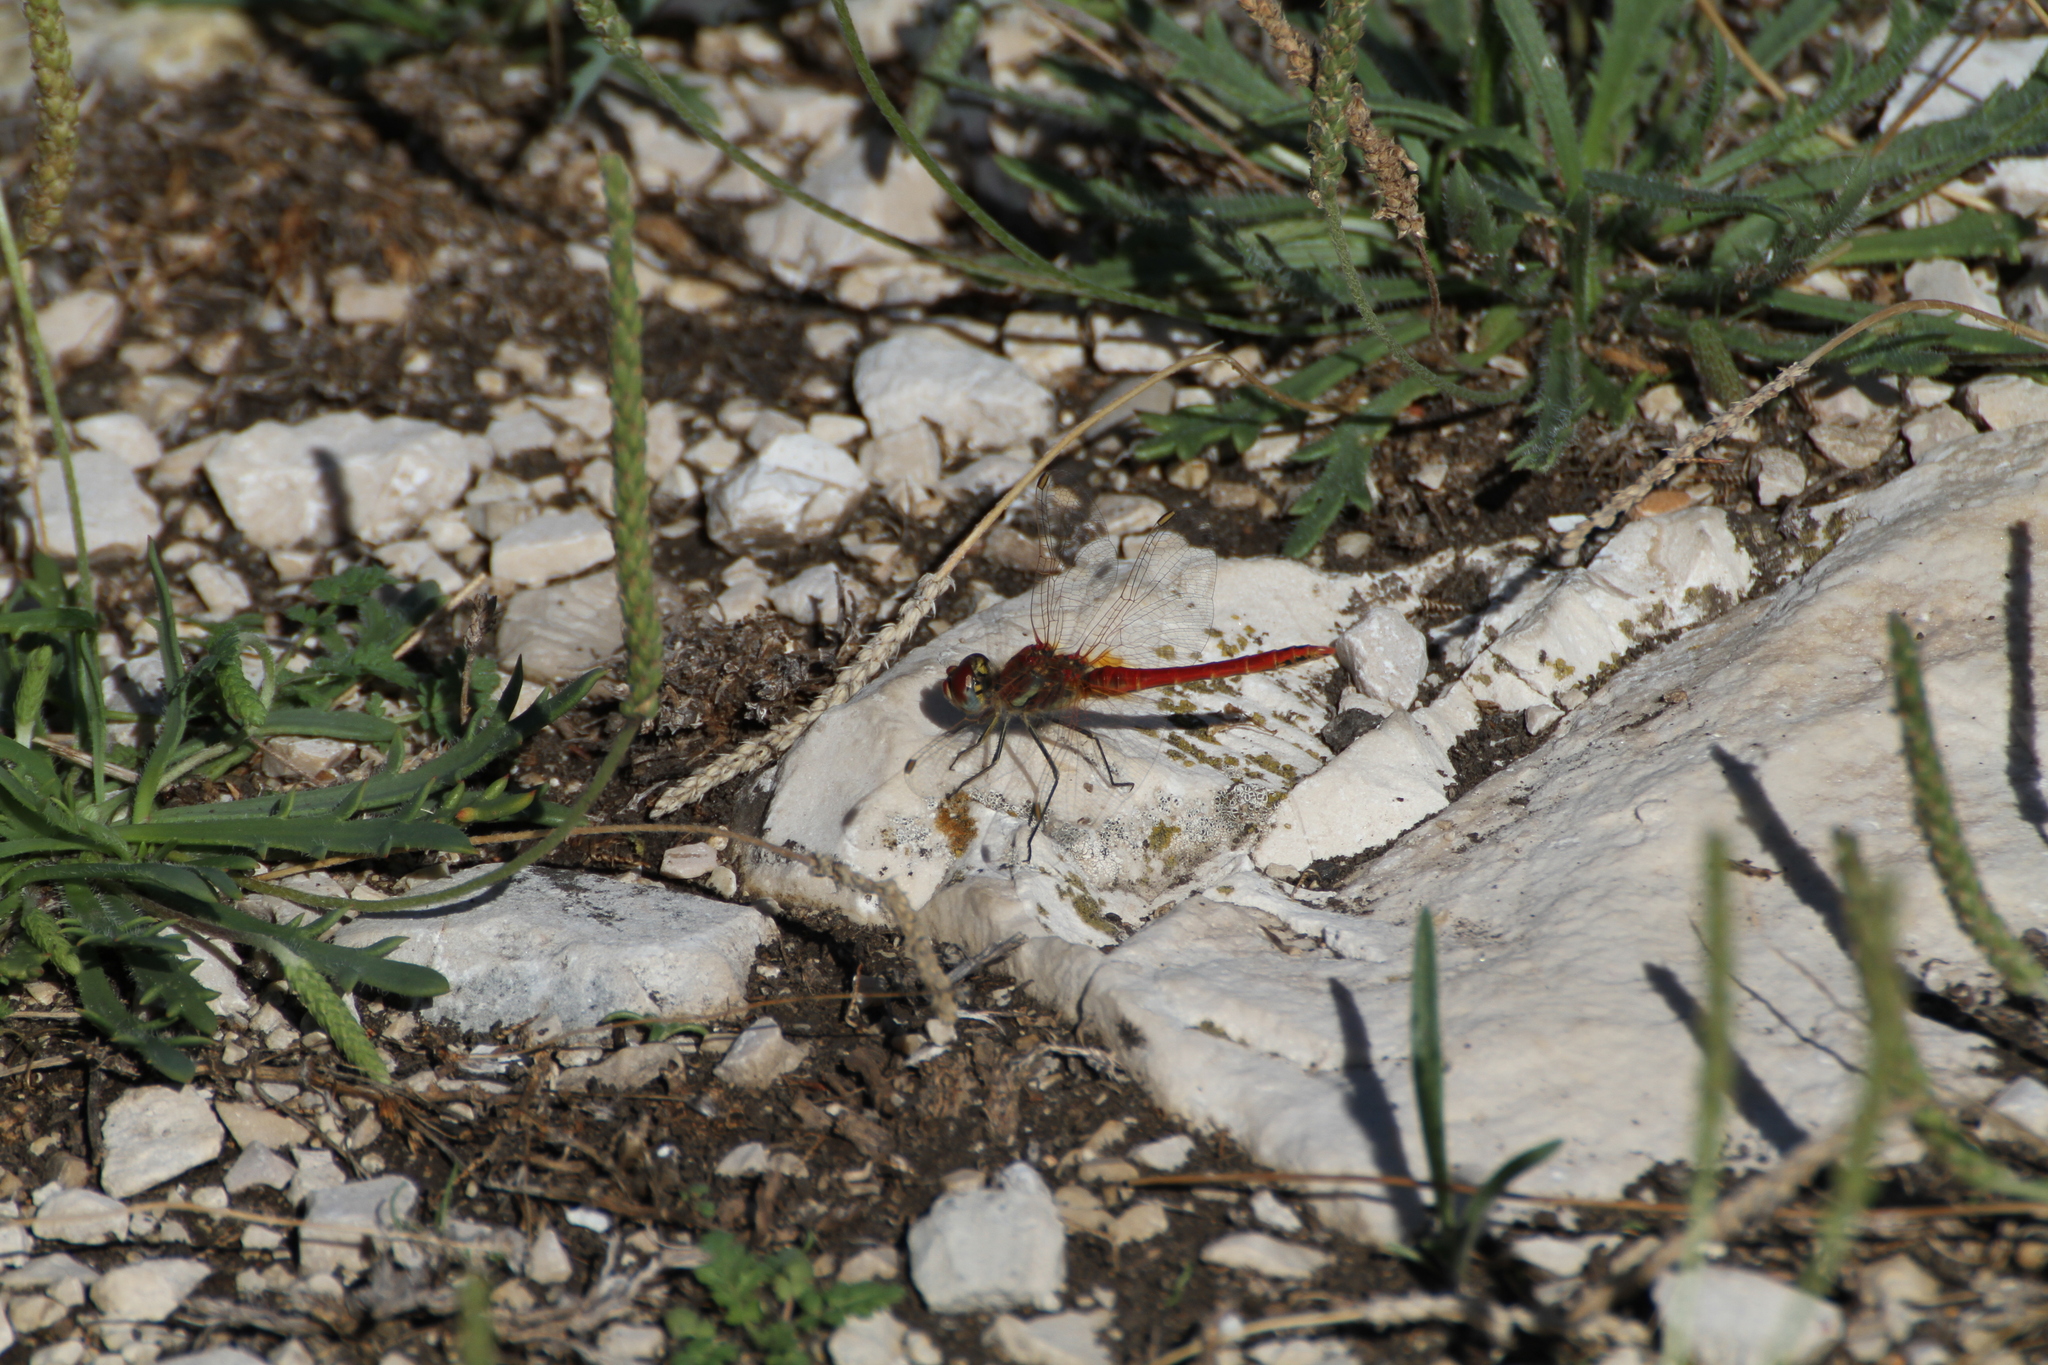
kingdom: Animalia
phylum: Arthropoda
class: Insecta
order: Odonata
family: Libellulidae
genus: Sympetrum
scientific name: Sympetrum fonscolombii
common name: Red-veined darter
